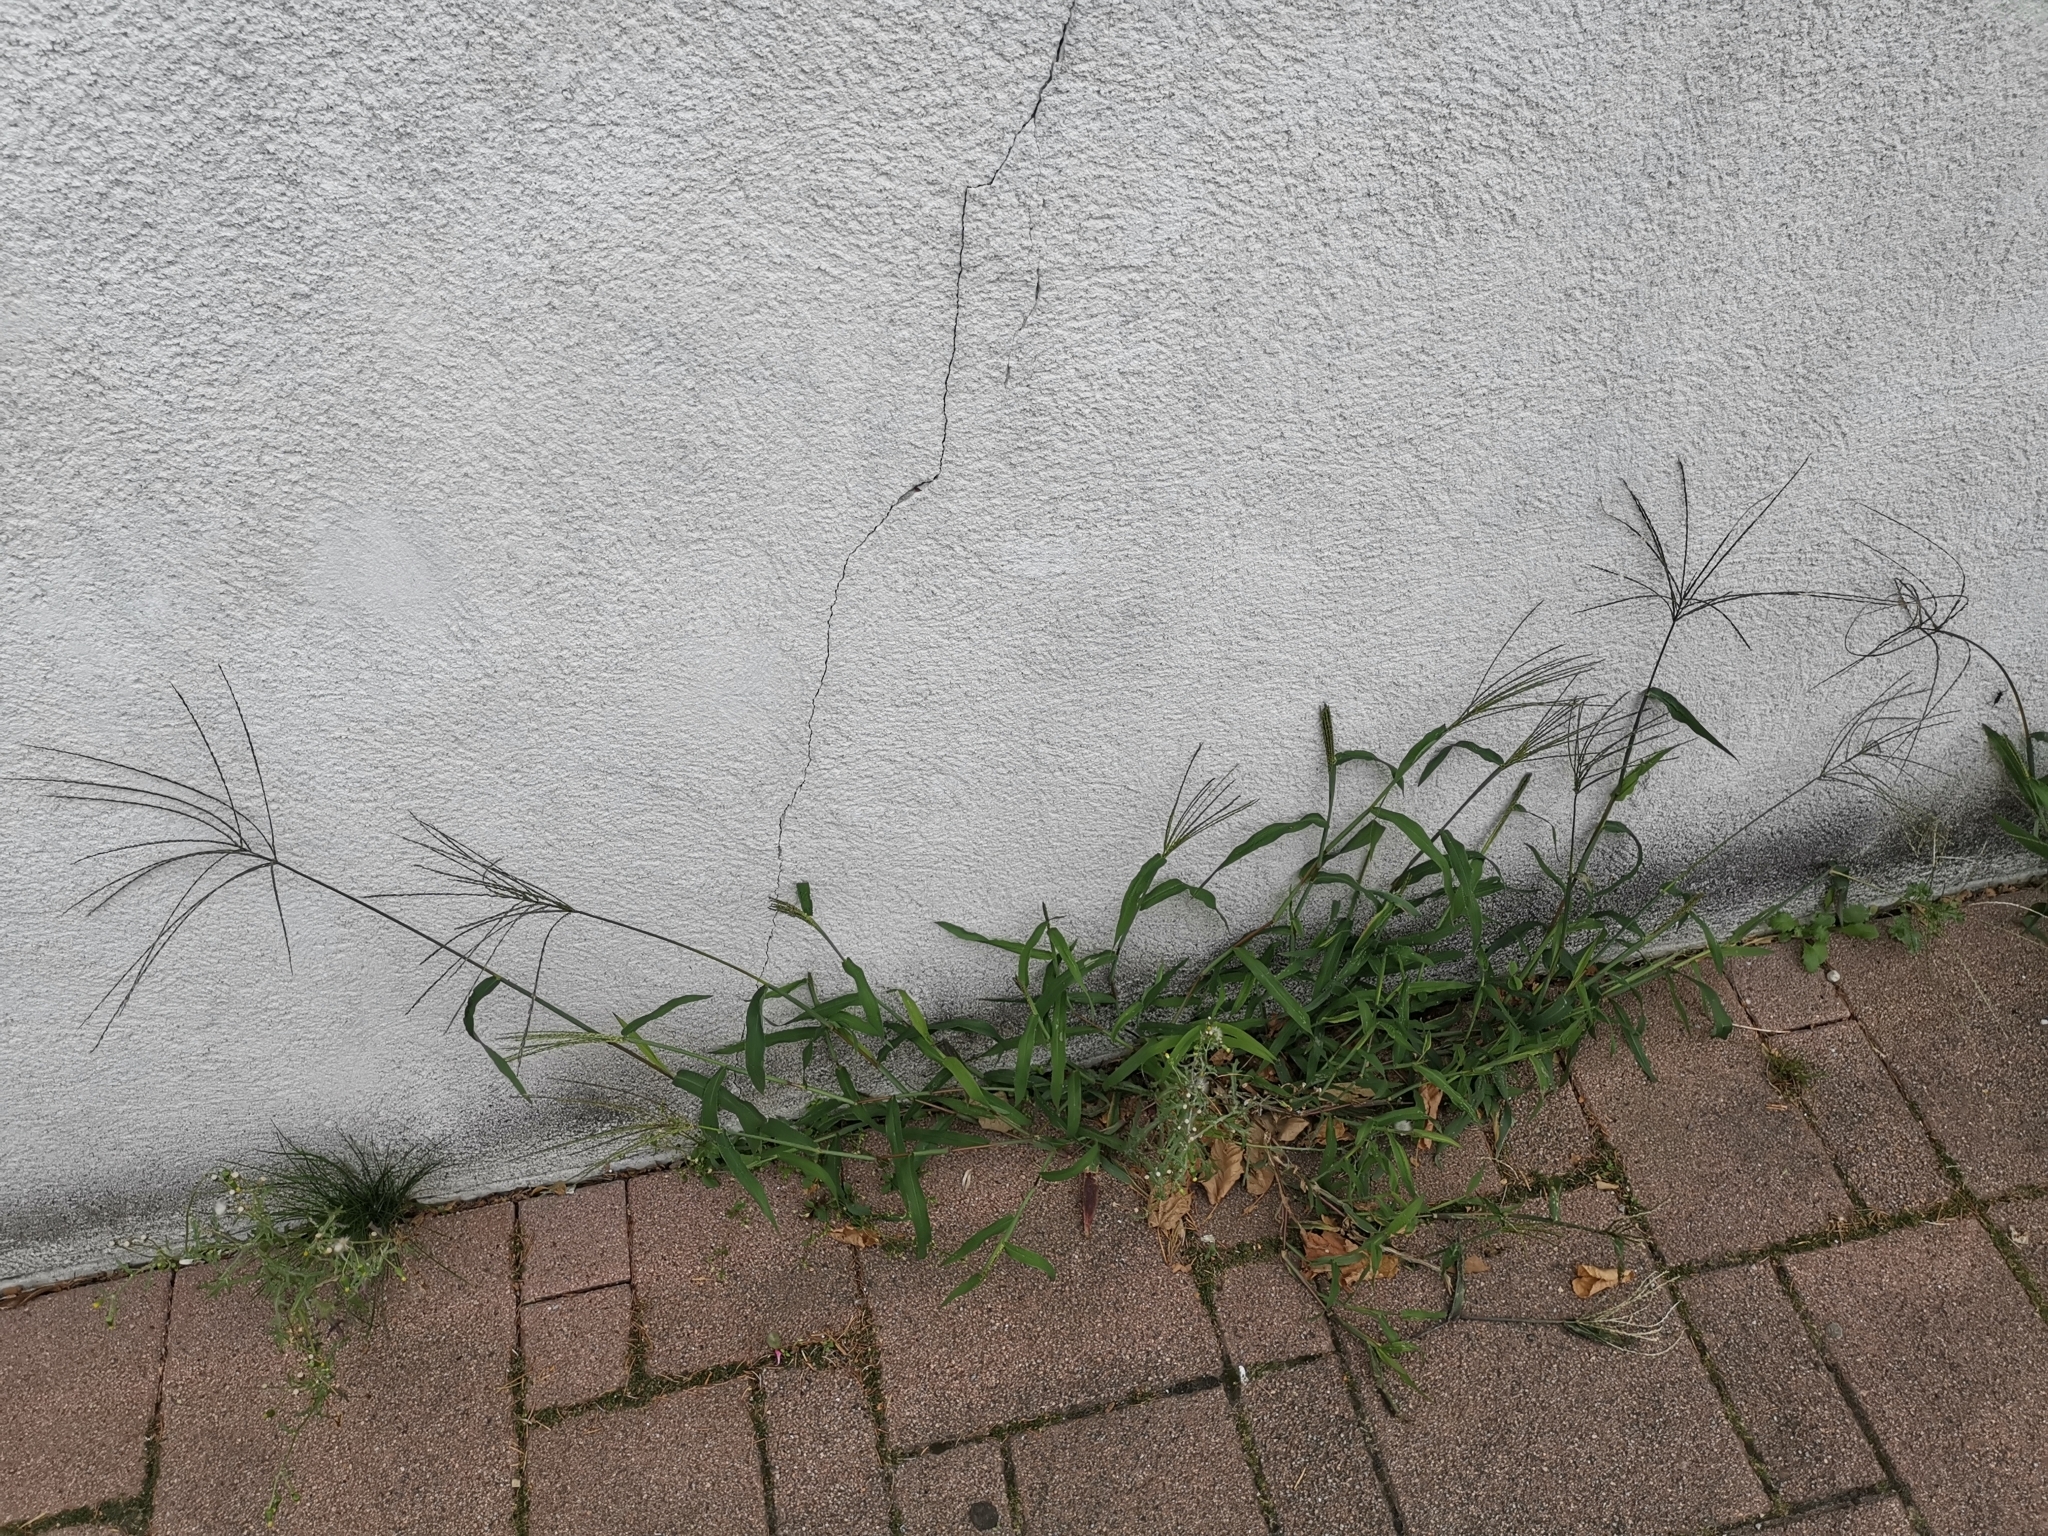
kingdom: Plantae
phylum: Tracheophyta
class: Liliopsida
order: Poales
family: Poaceae
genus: Digitaria
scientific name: Digitaria sanguinalis
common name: Hairy crabgrass
